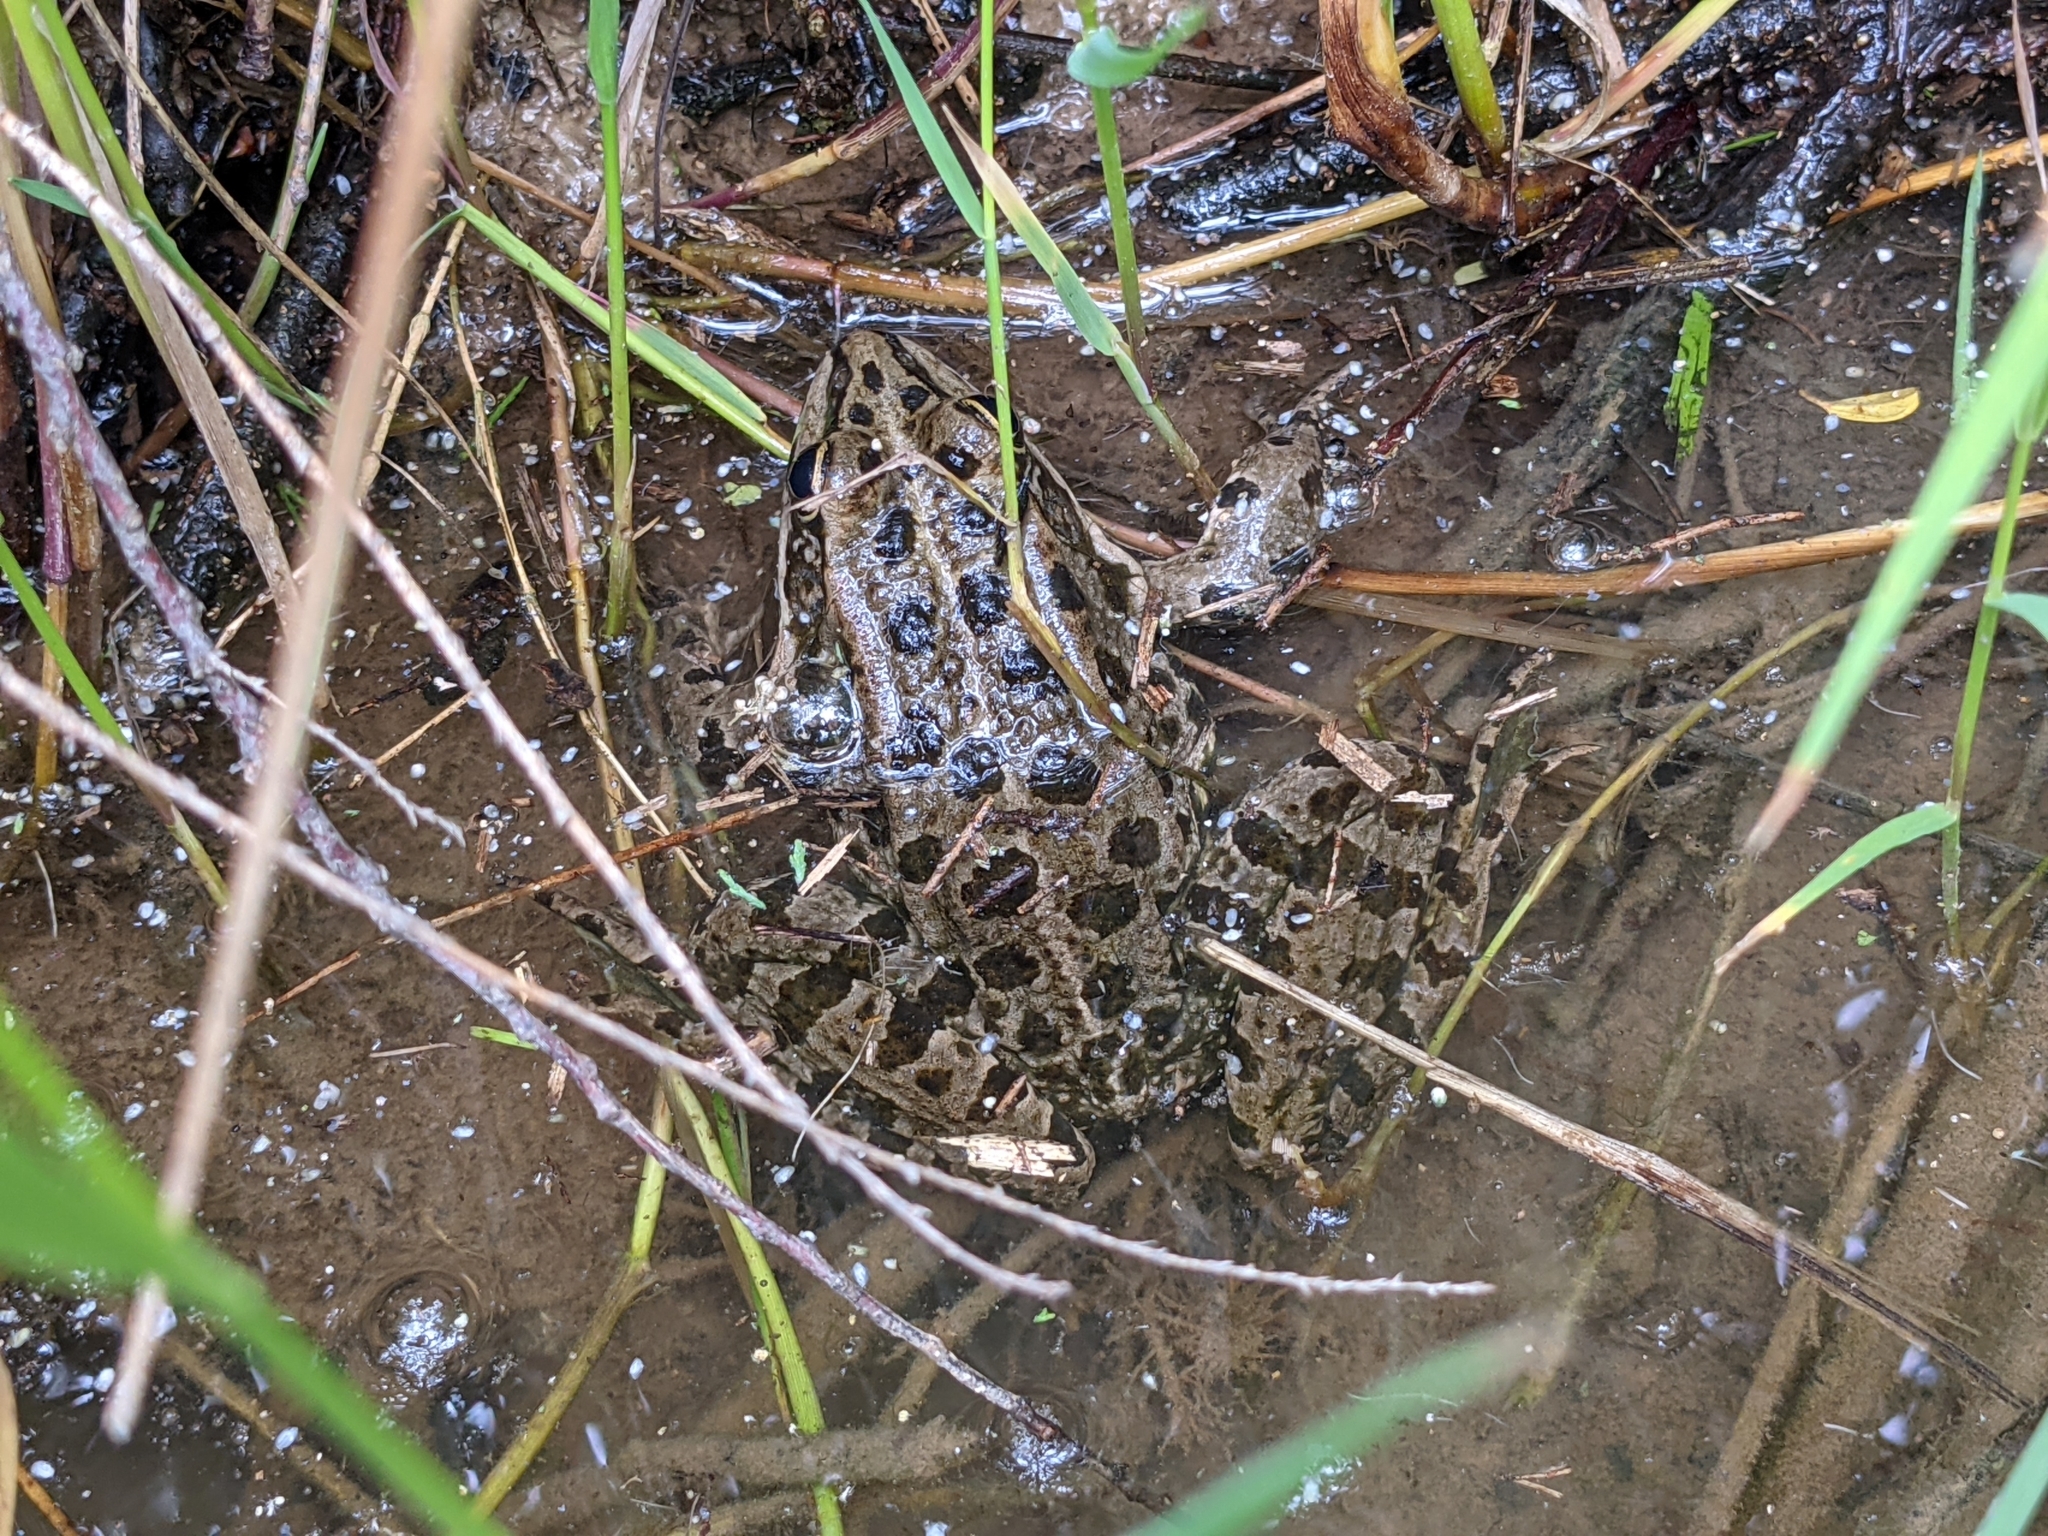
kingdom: Animalia
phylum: Chordata
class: Amphibia
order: Anura
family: Ranidae
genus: Pelophylax
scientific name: Pelophylax perezi
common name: Perez's frog
